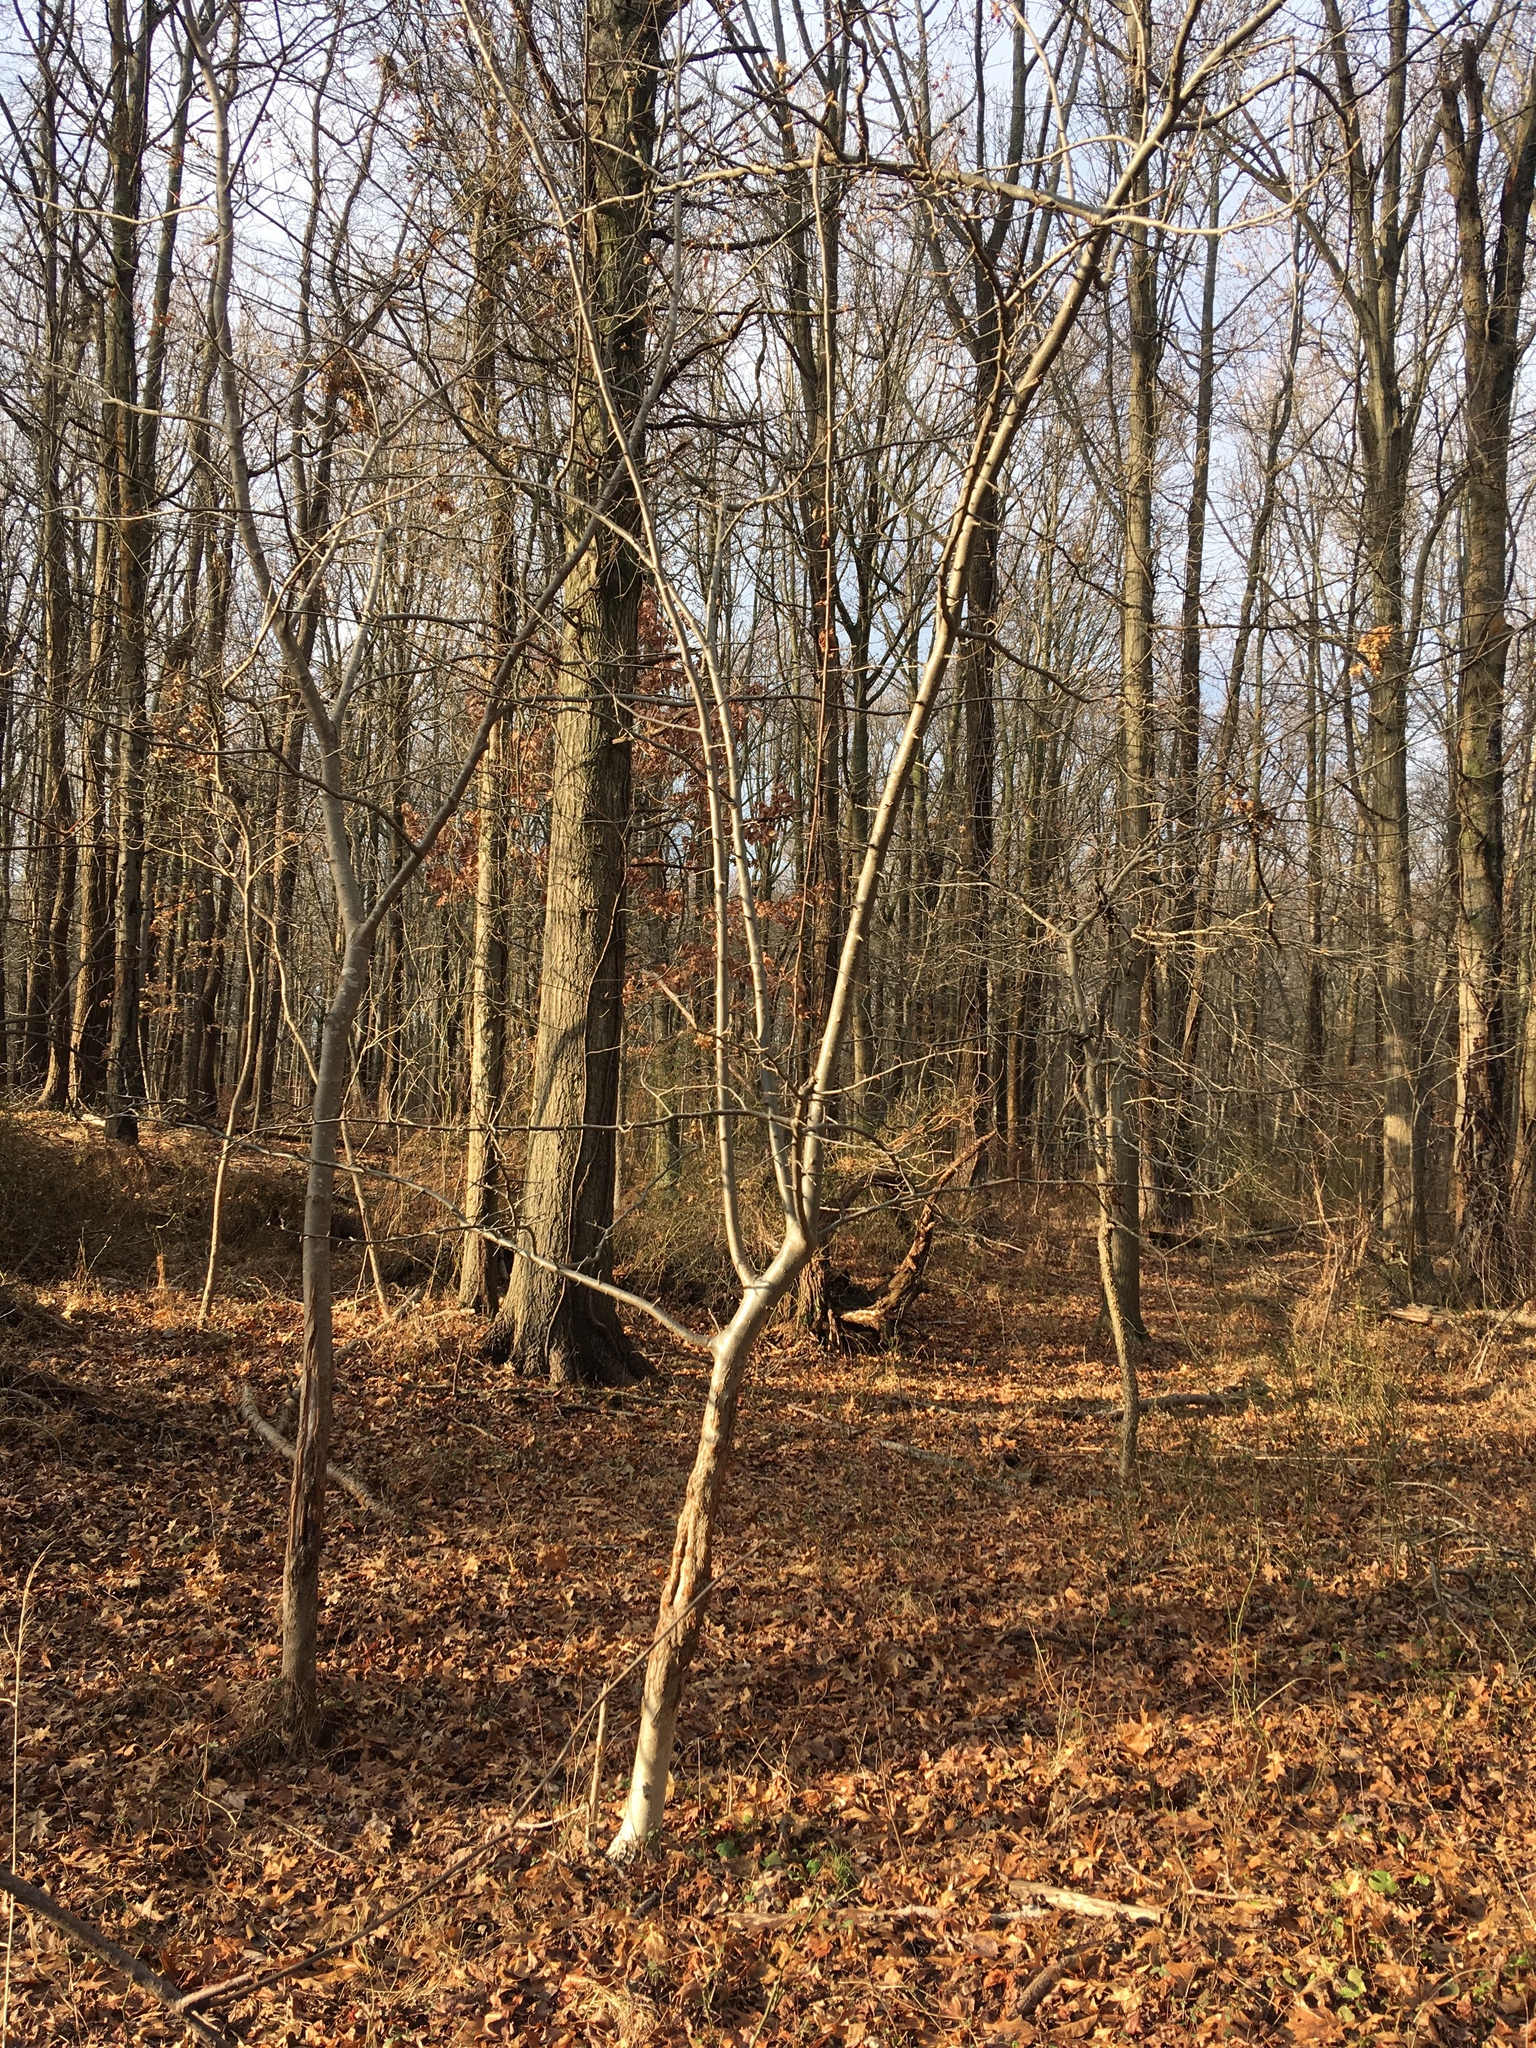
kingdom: Plantae
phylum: Tracheophyta
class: Magnoliopsida
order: Rosales
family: Rosaceae
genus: Malus
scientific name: Malus hupehensis
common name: Chinese crab apple
